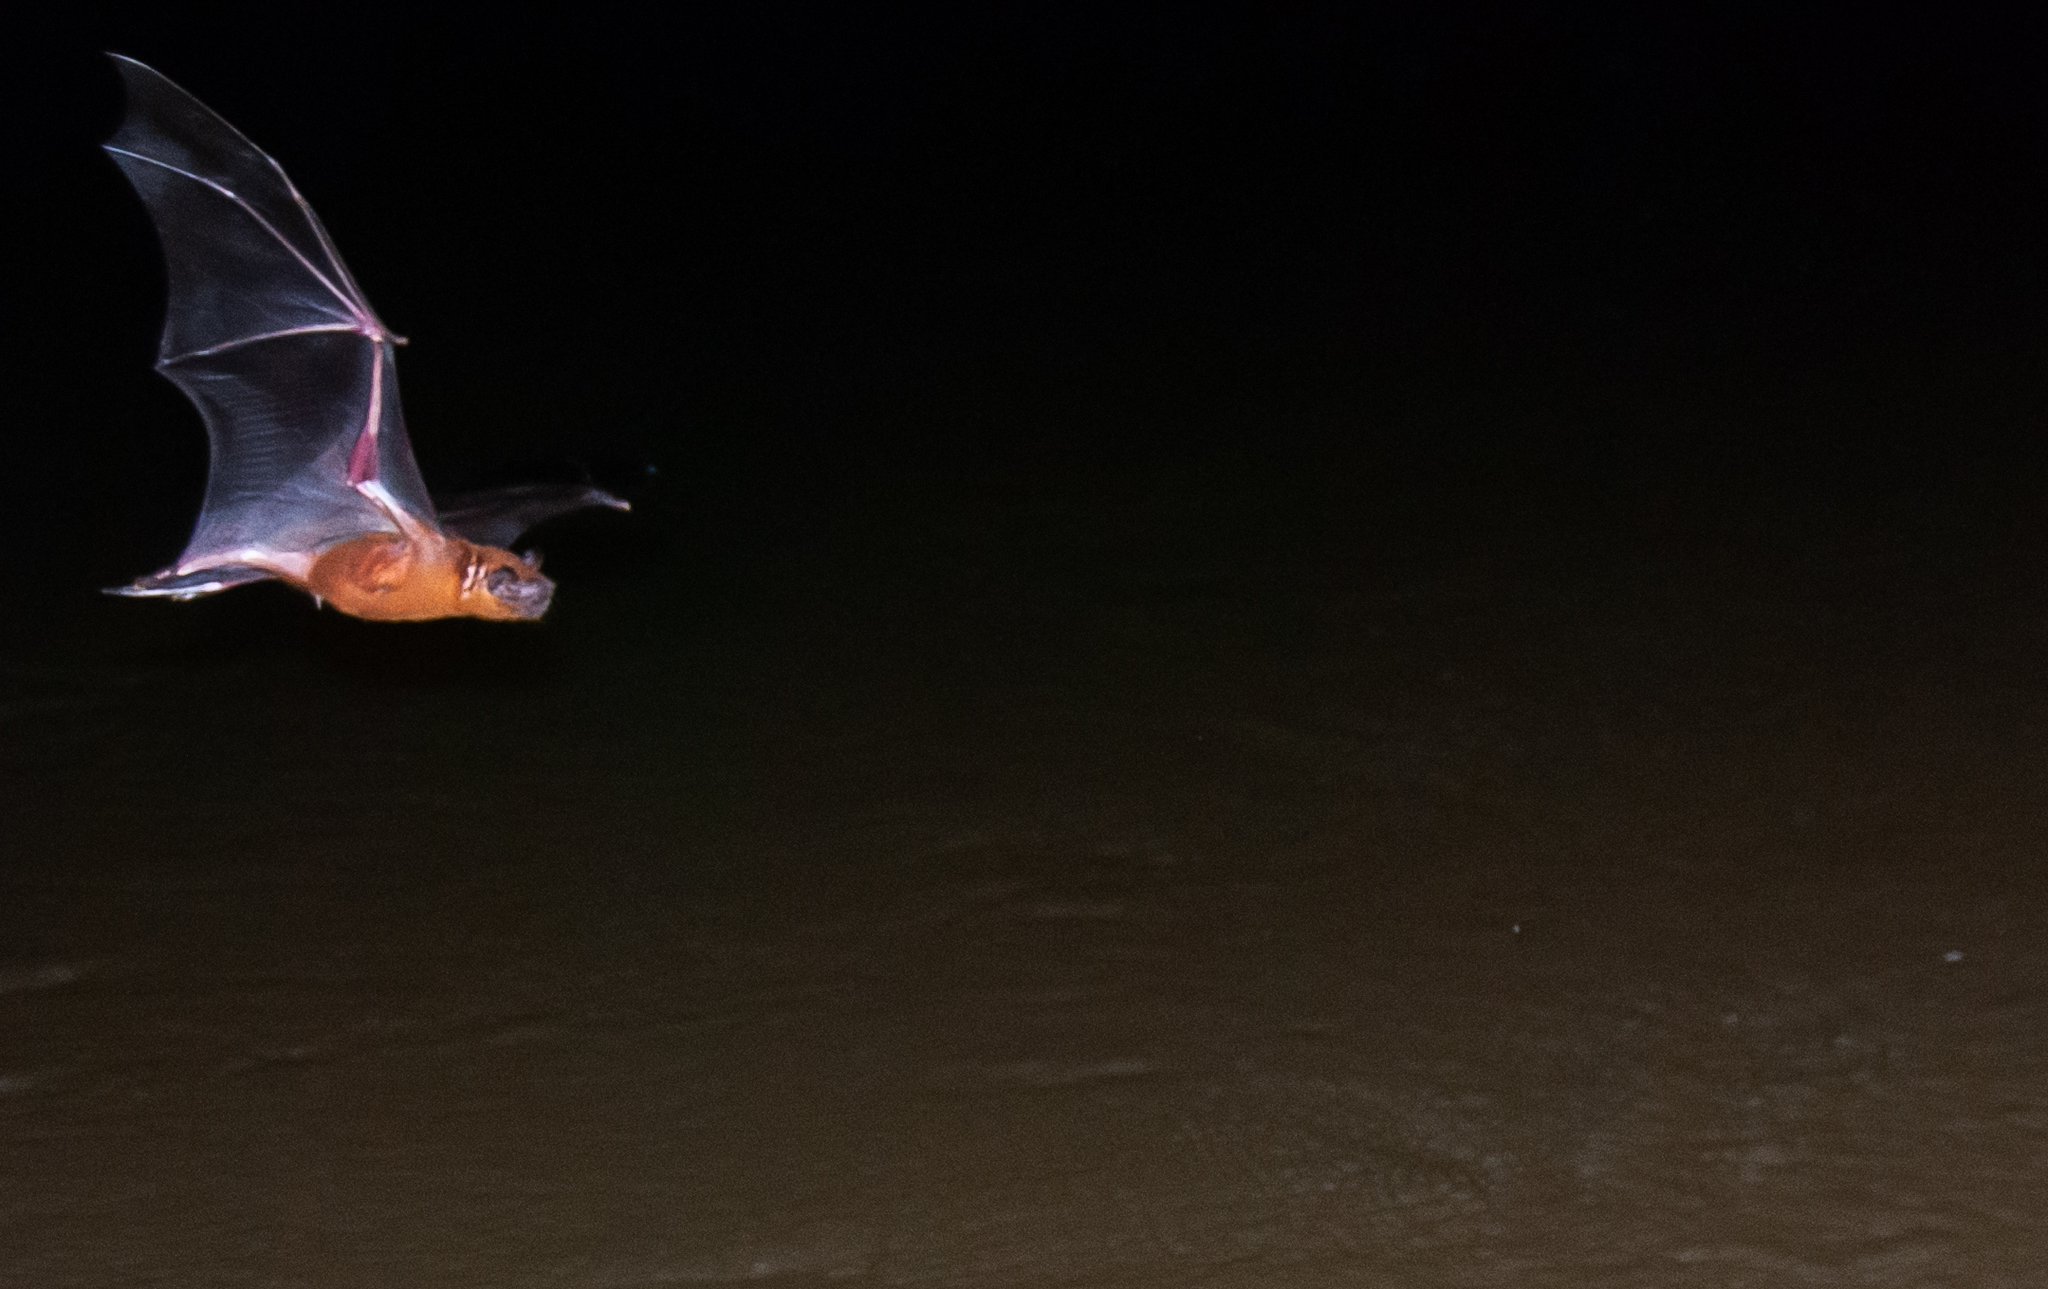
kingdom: Animalia
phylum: Chordata
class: Mammalia
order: Chiroptera
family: Noctilionidae
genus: Noctilio
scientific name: Noctilio leporinus
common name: Greater bulldog bat
